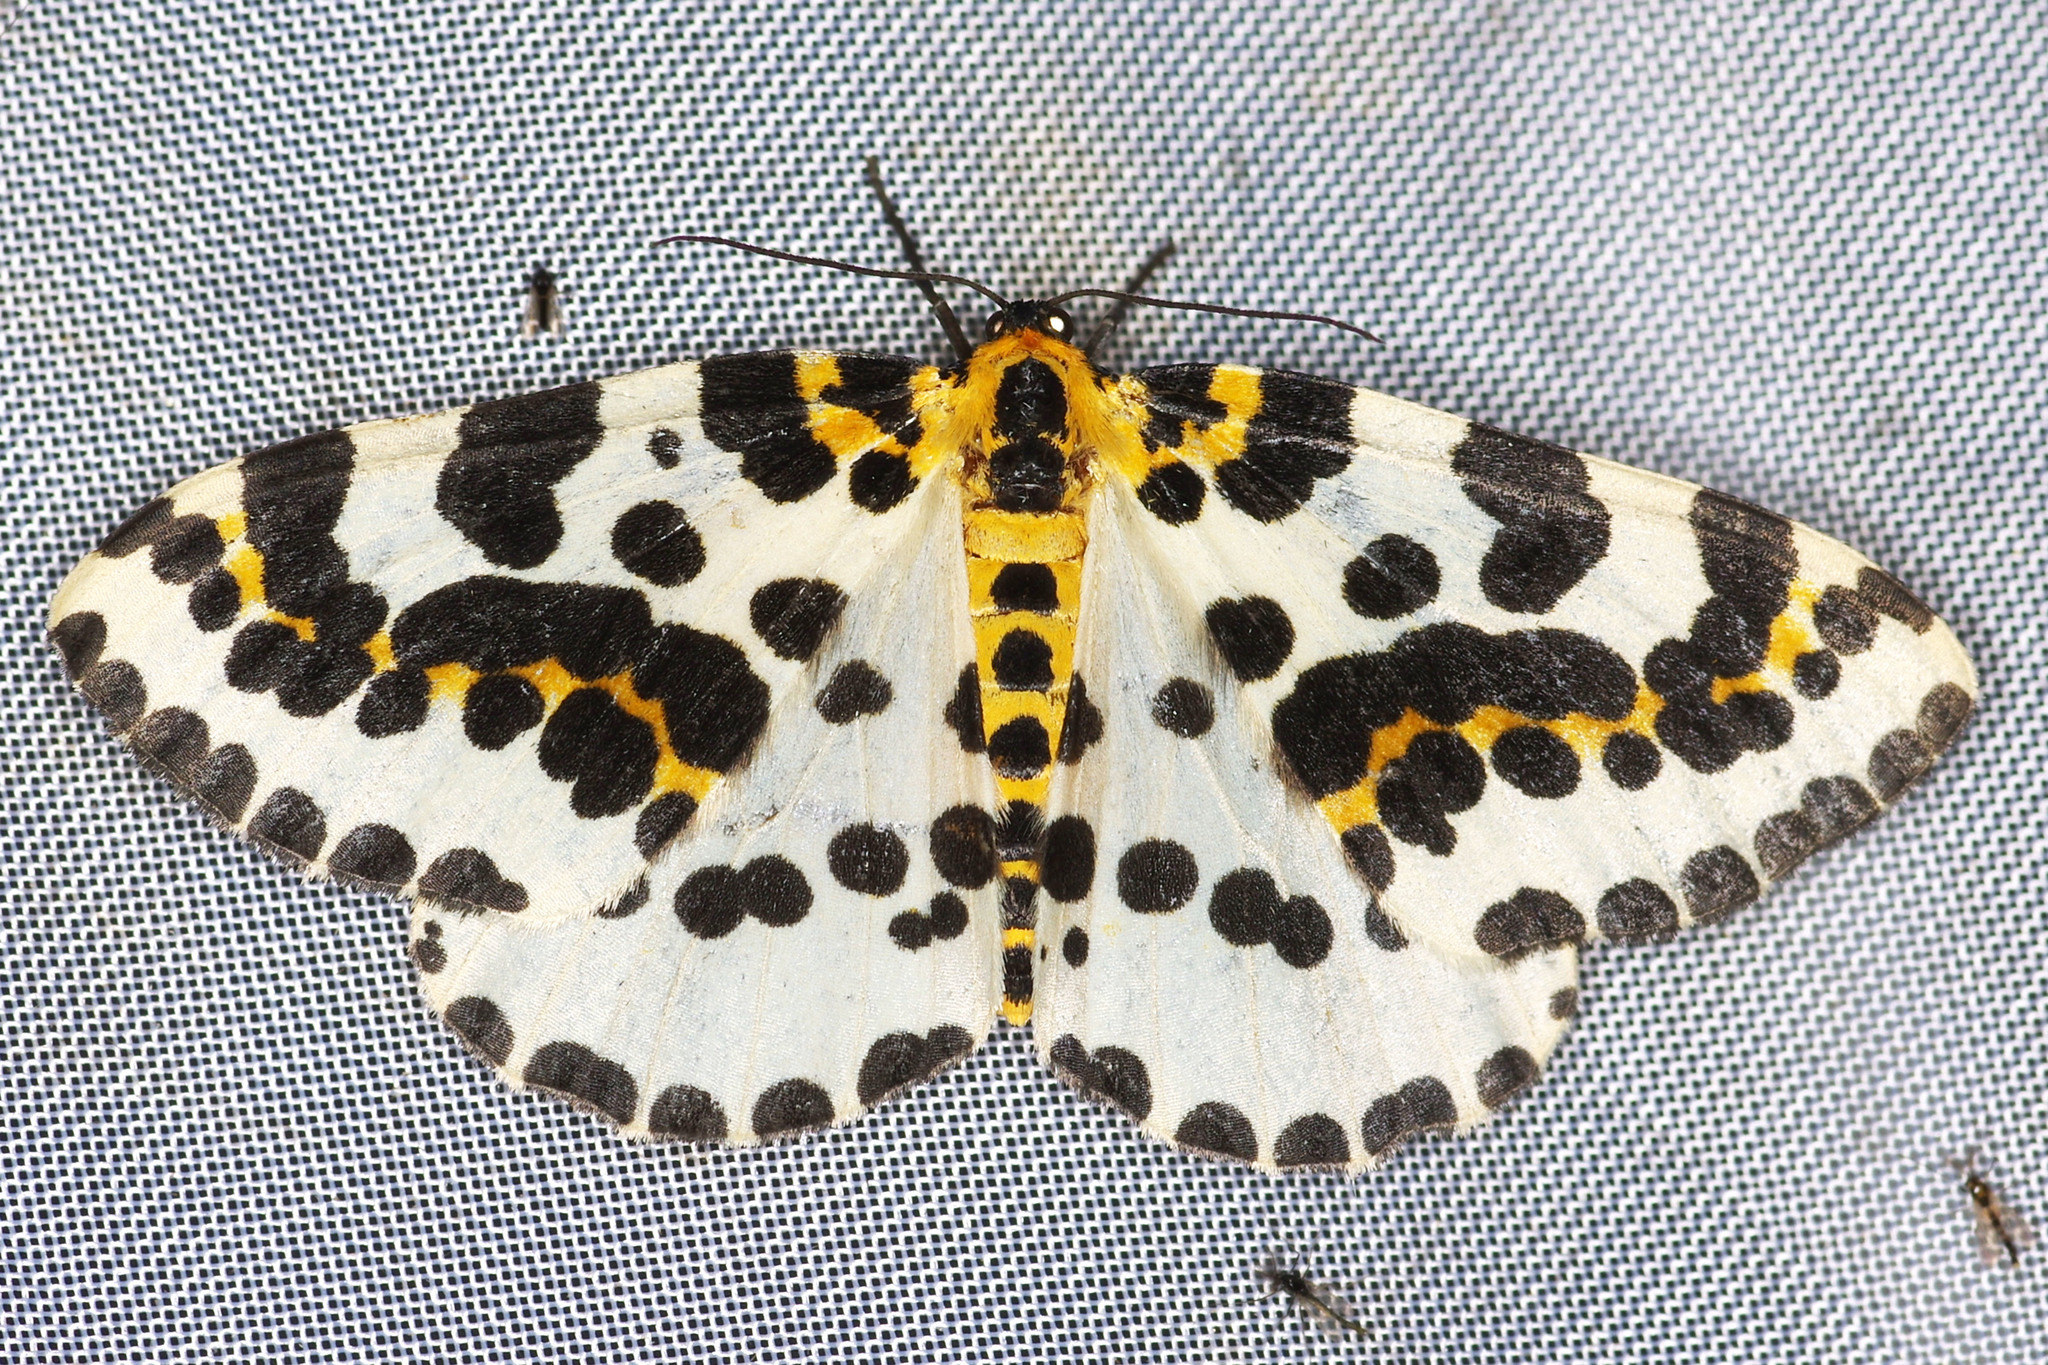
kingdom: Animalia
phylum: Arthropoda
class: Insecta
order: Lepidoptera
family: Geometridae
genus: Abraxas
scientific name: Abraxas grossulariata
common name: Magpie
